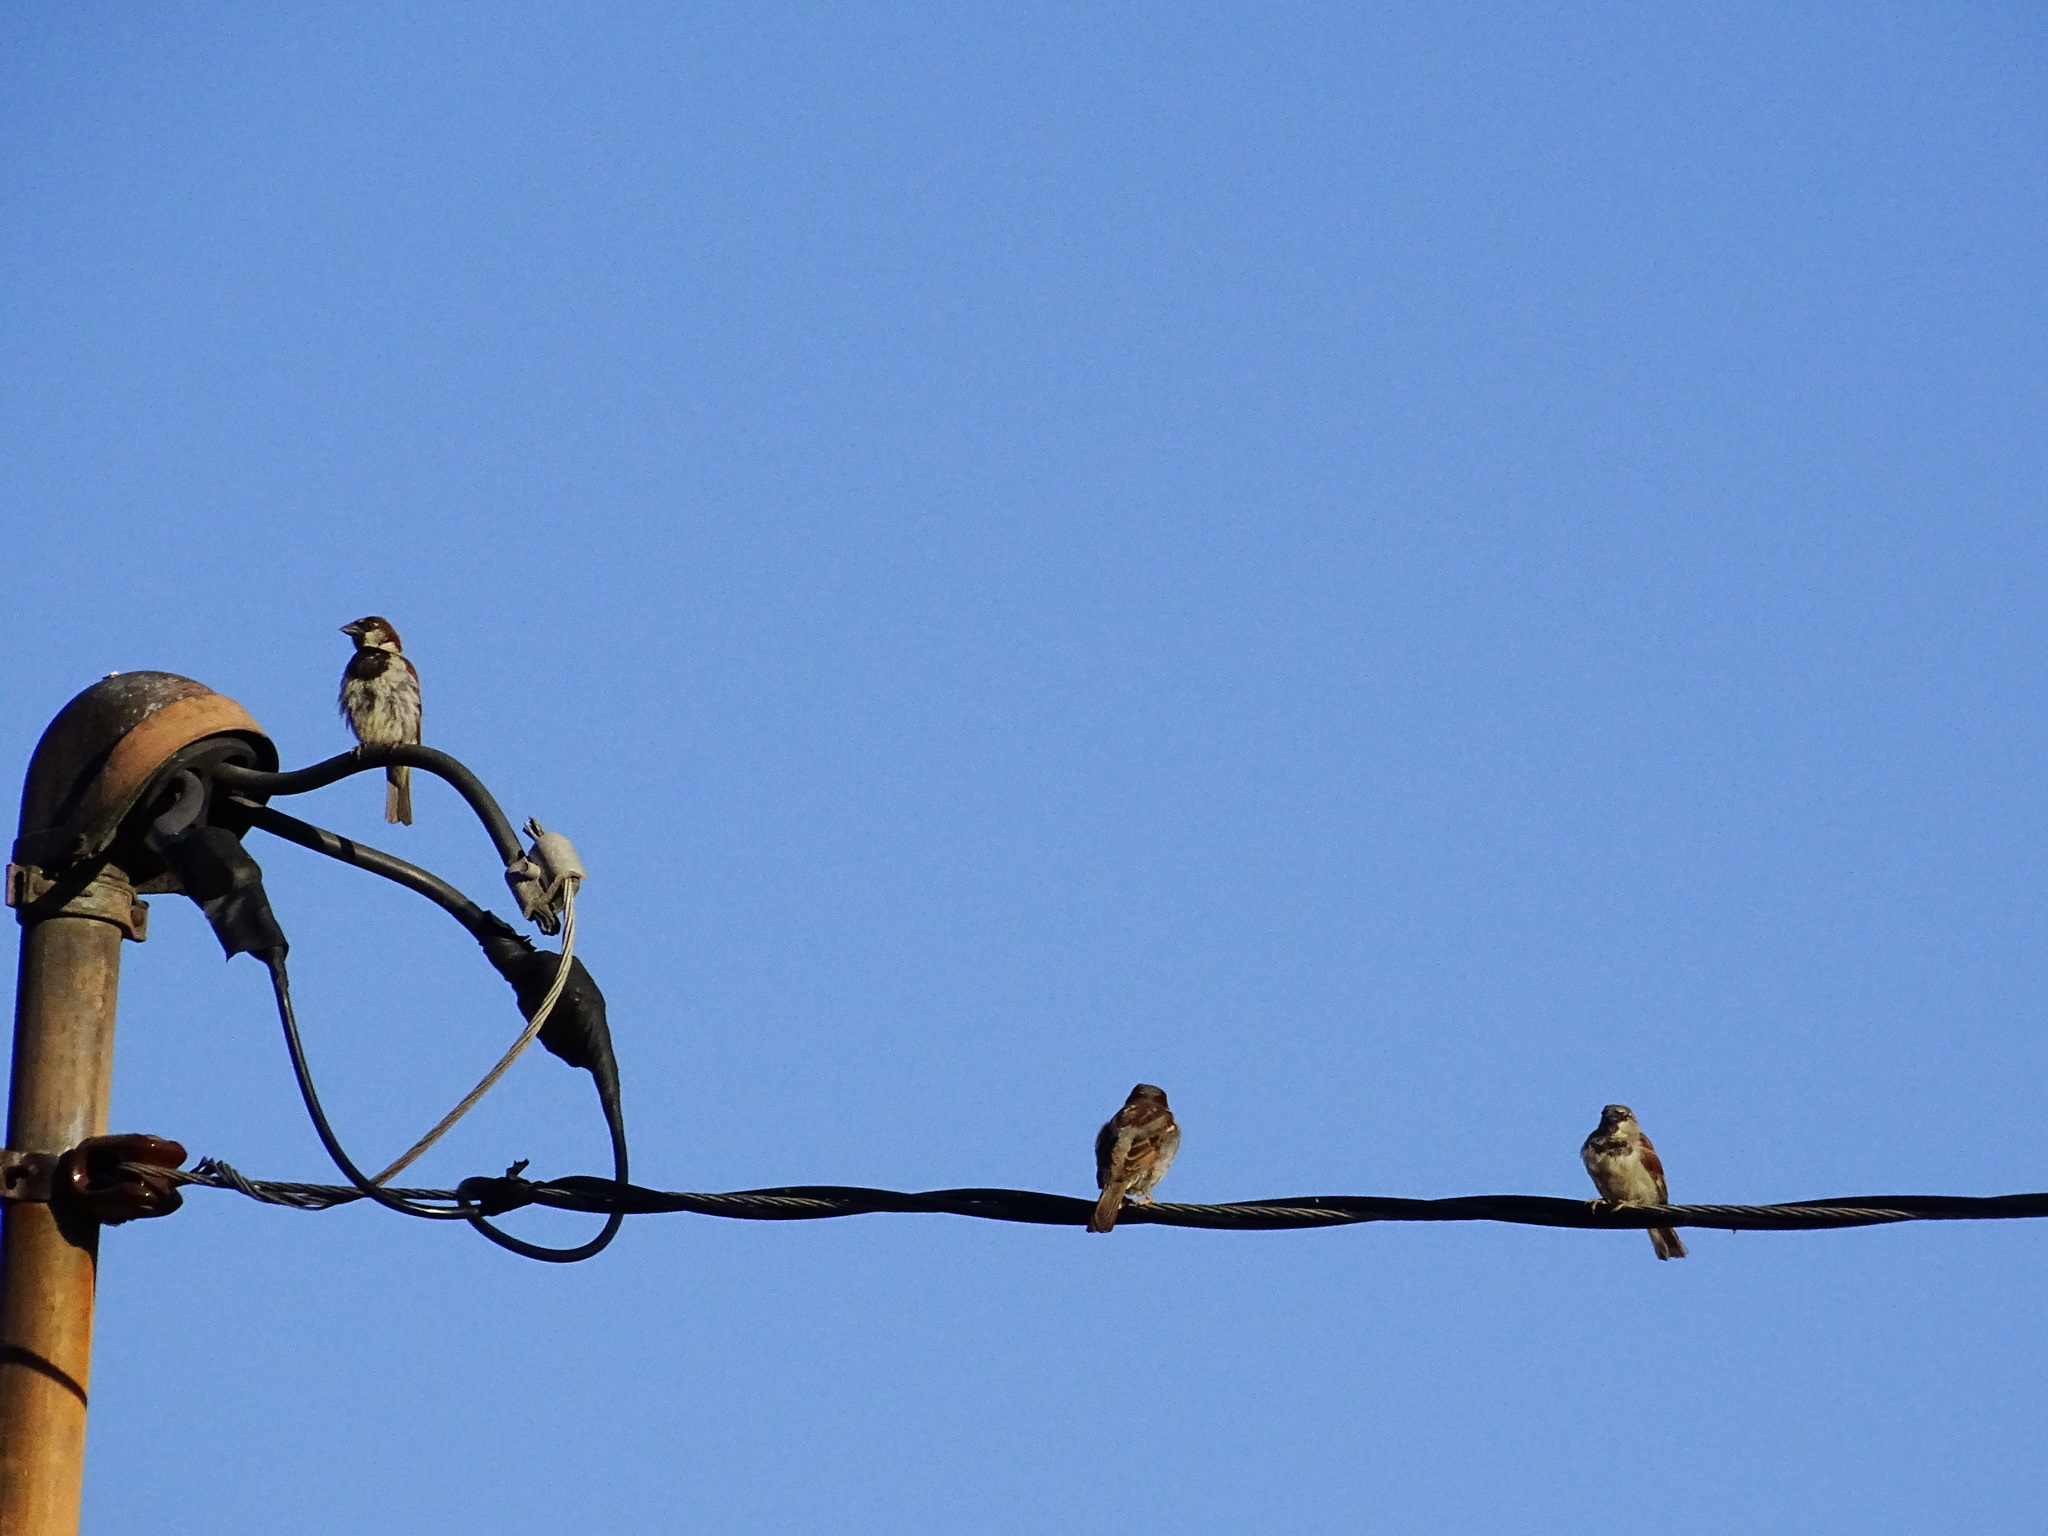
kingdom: Animalia
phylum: Chordata
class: Aves
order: Passeriformes
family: Passeridae
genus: Passer
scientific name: Passer domesticus
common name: House sparrow
